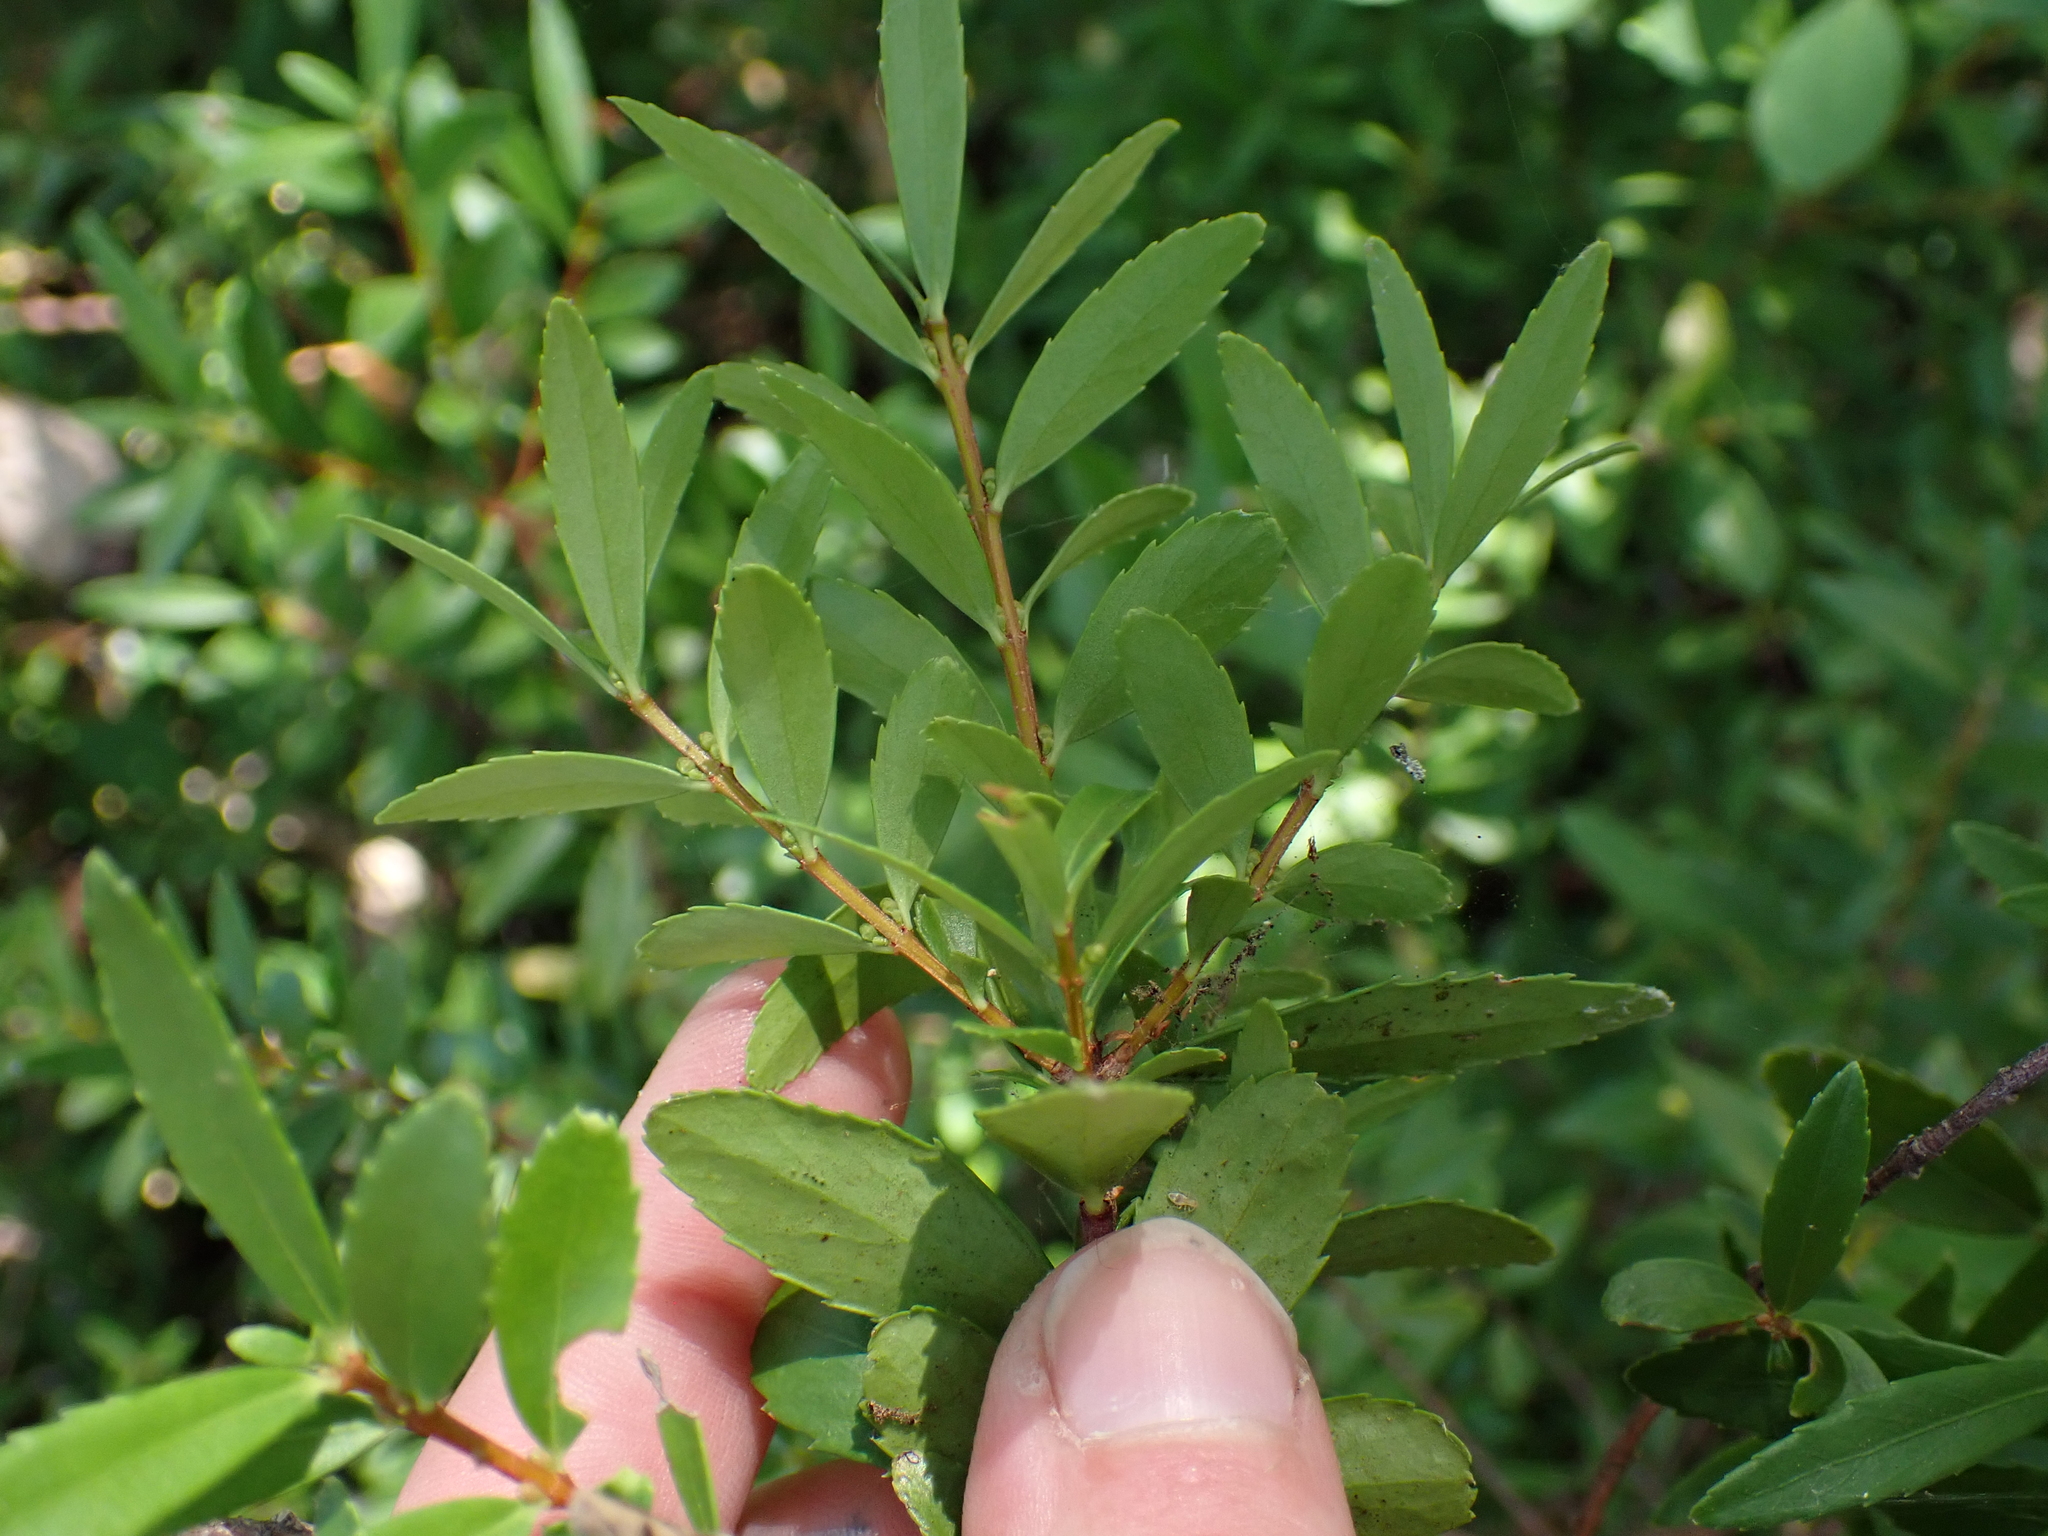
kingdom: Plantae
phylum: Tracheophyta
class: Magnoliopsida
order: Celastrales
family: Celastraceae
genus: Paxistima
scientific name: Paxistima myrsinites
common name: Mountain-lover
